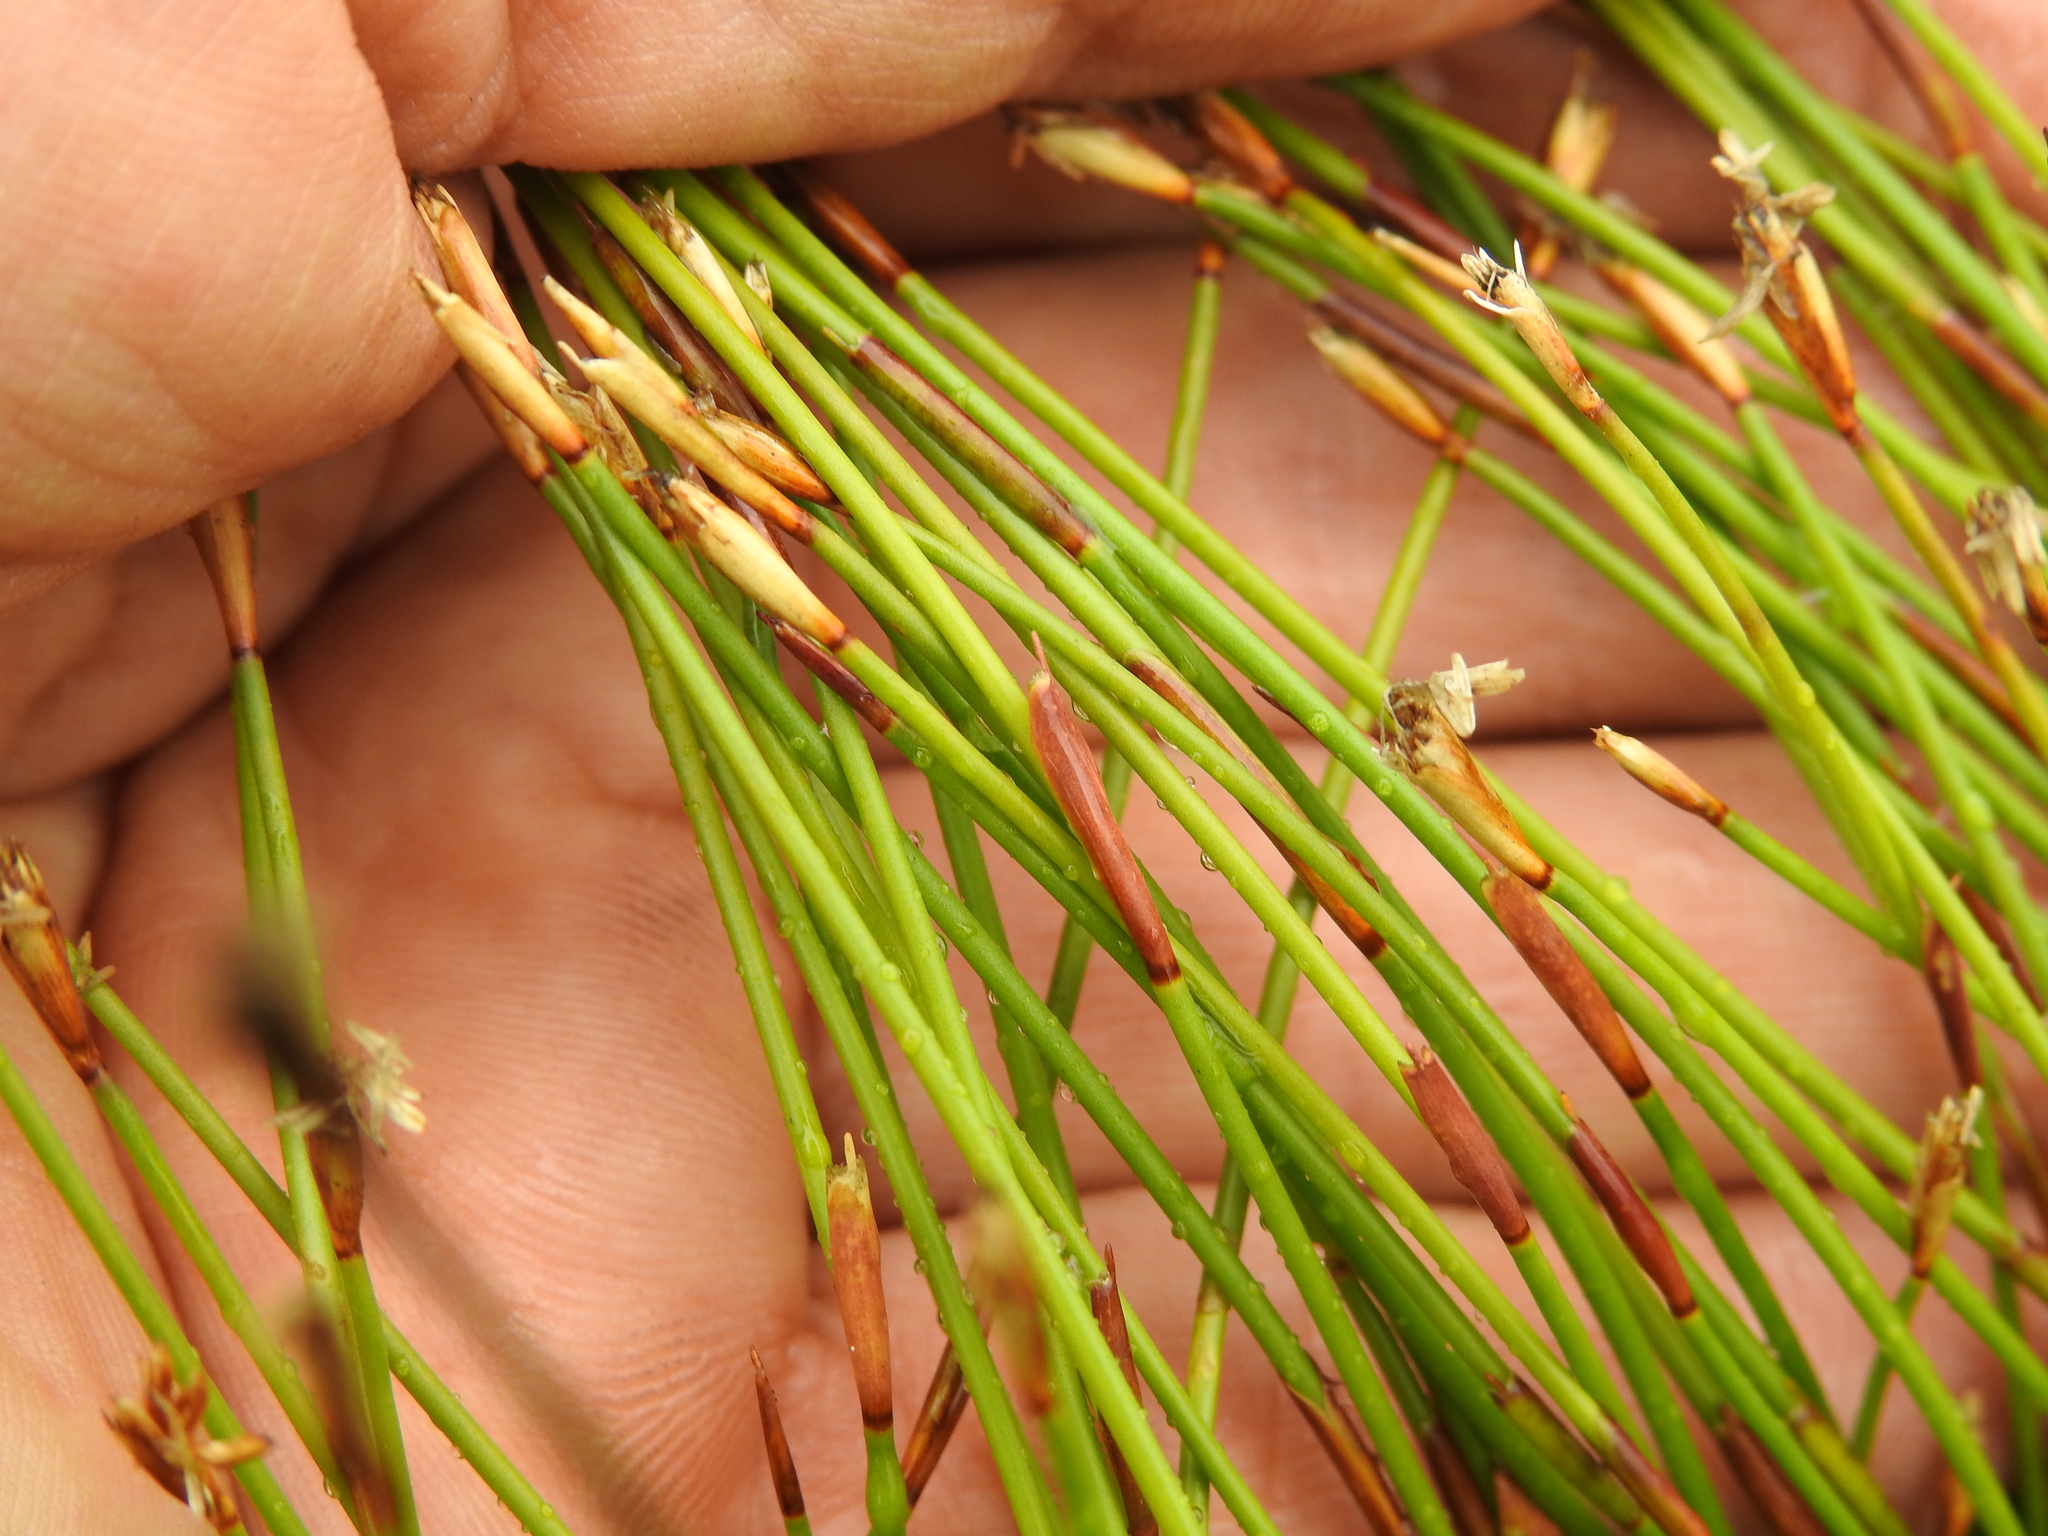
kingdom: Plantae
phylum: Tracheophyta
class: Liliopsida
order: Poales
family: Restionaceae
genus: Coleocarya
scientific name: Coleocarya gracilis
